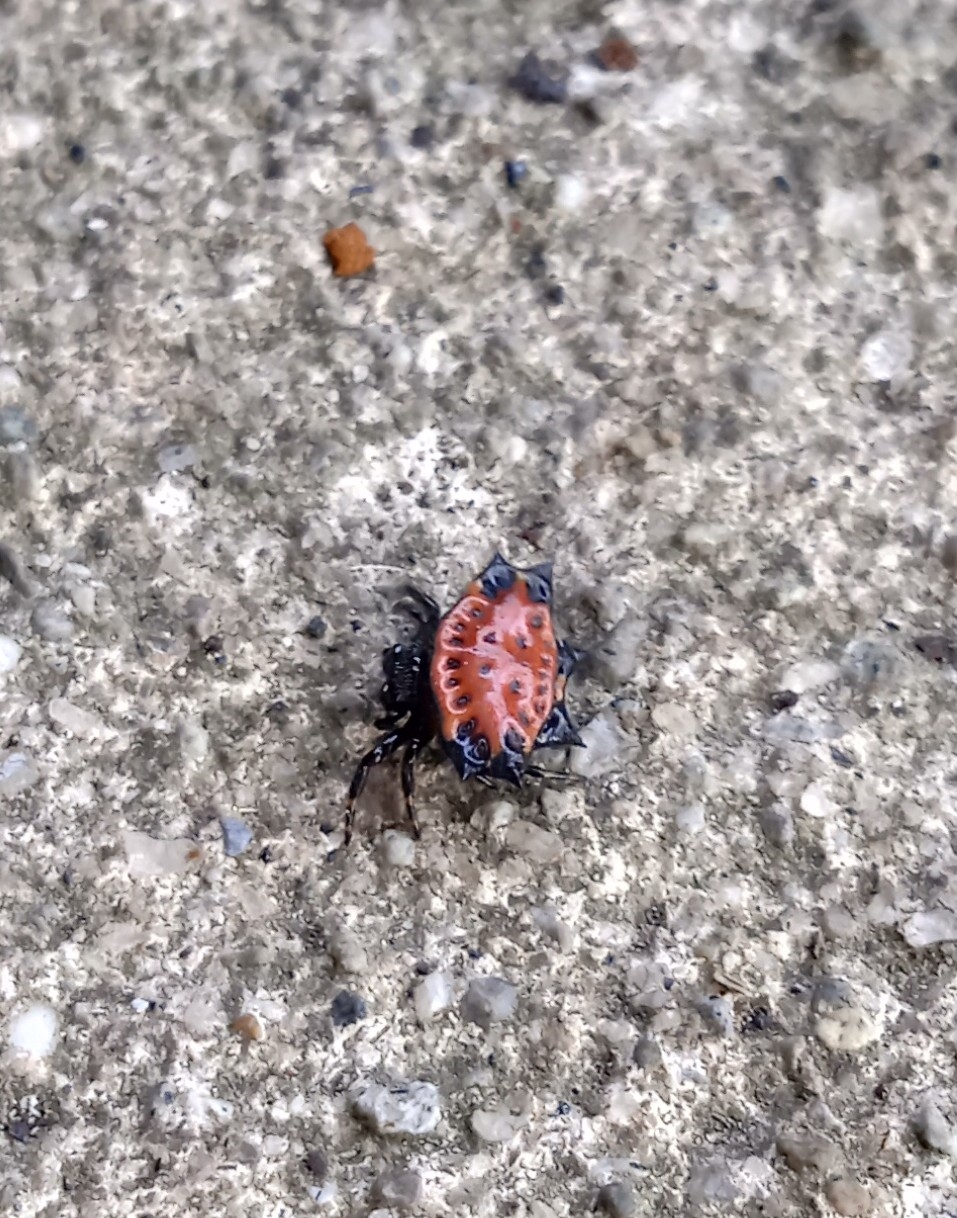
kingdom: Animalia
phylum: Arthropoda
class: Arachnida
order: Araneae
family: Araneidae
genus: Gasteracantha
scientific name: Gasteracantha cancriformis
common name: Orb weavers
